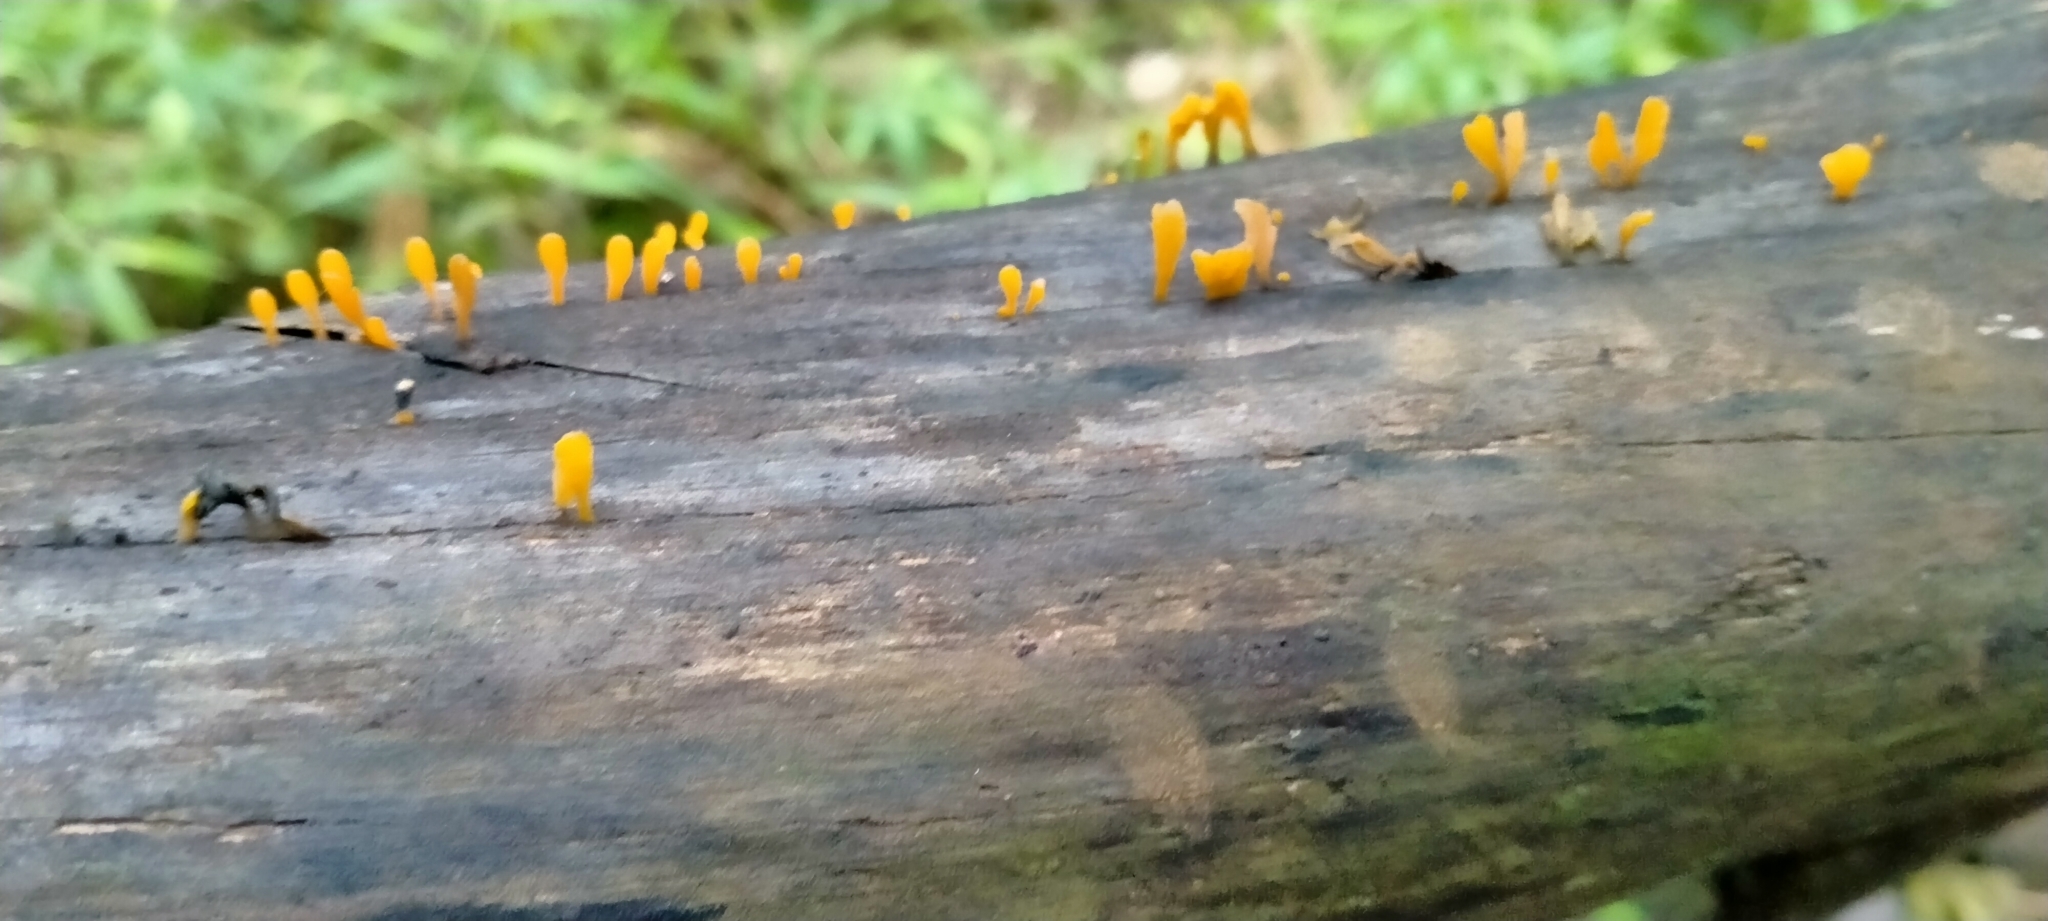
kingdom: Fungi
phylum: Basidiomycota
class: Dacrymycetes
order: Dacrymycetales
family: Dacrymycetaceae
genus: Dacrymyces
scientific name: Dacrymyces spathularius
